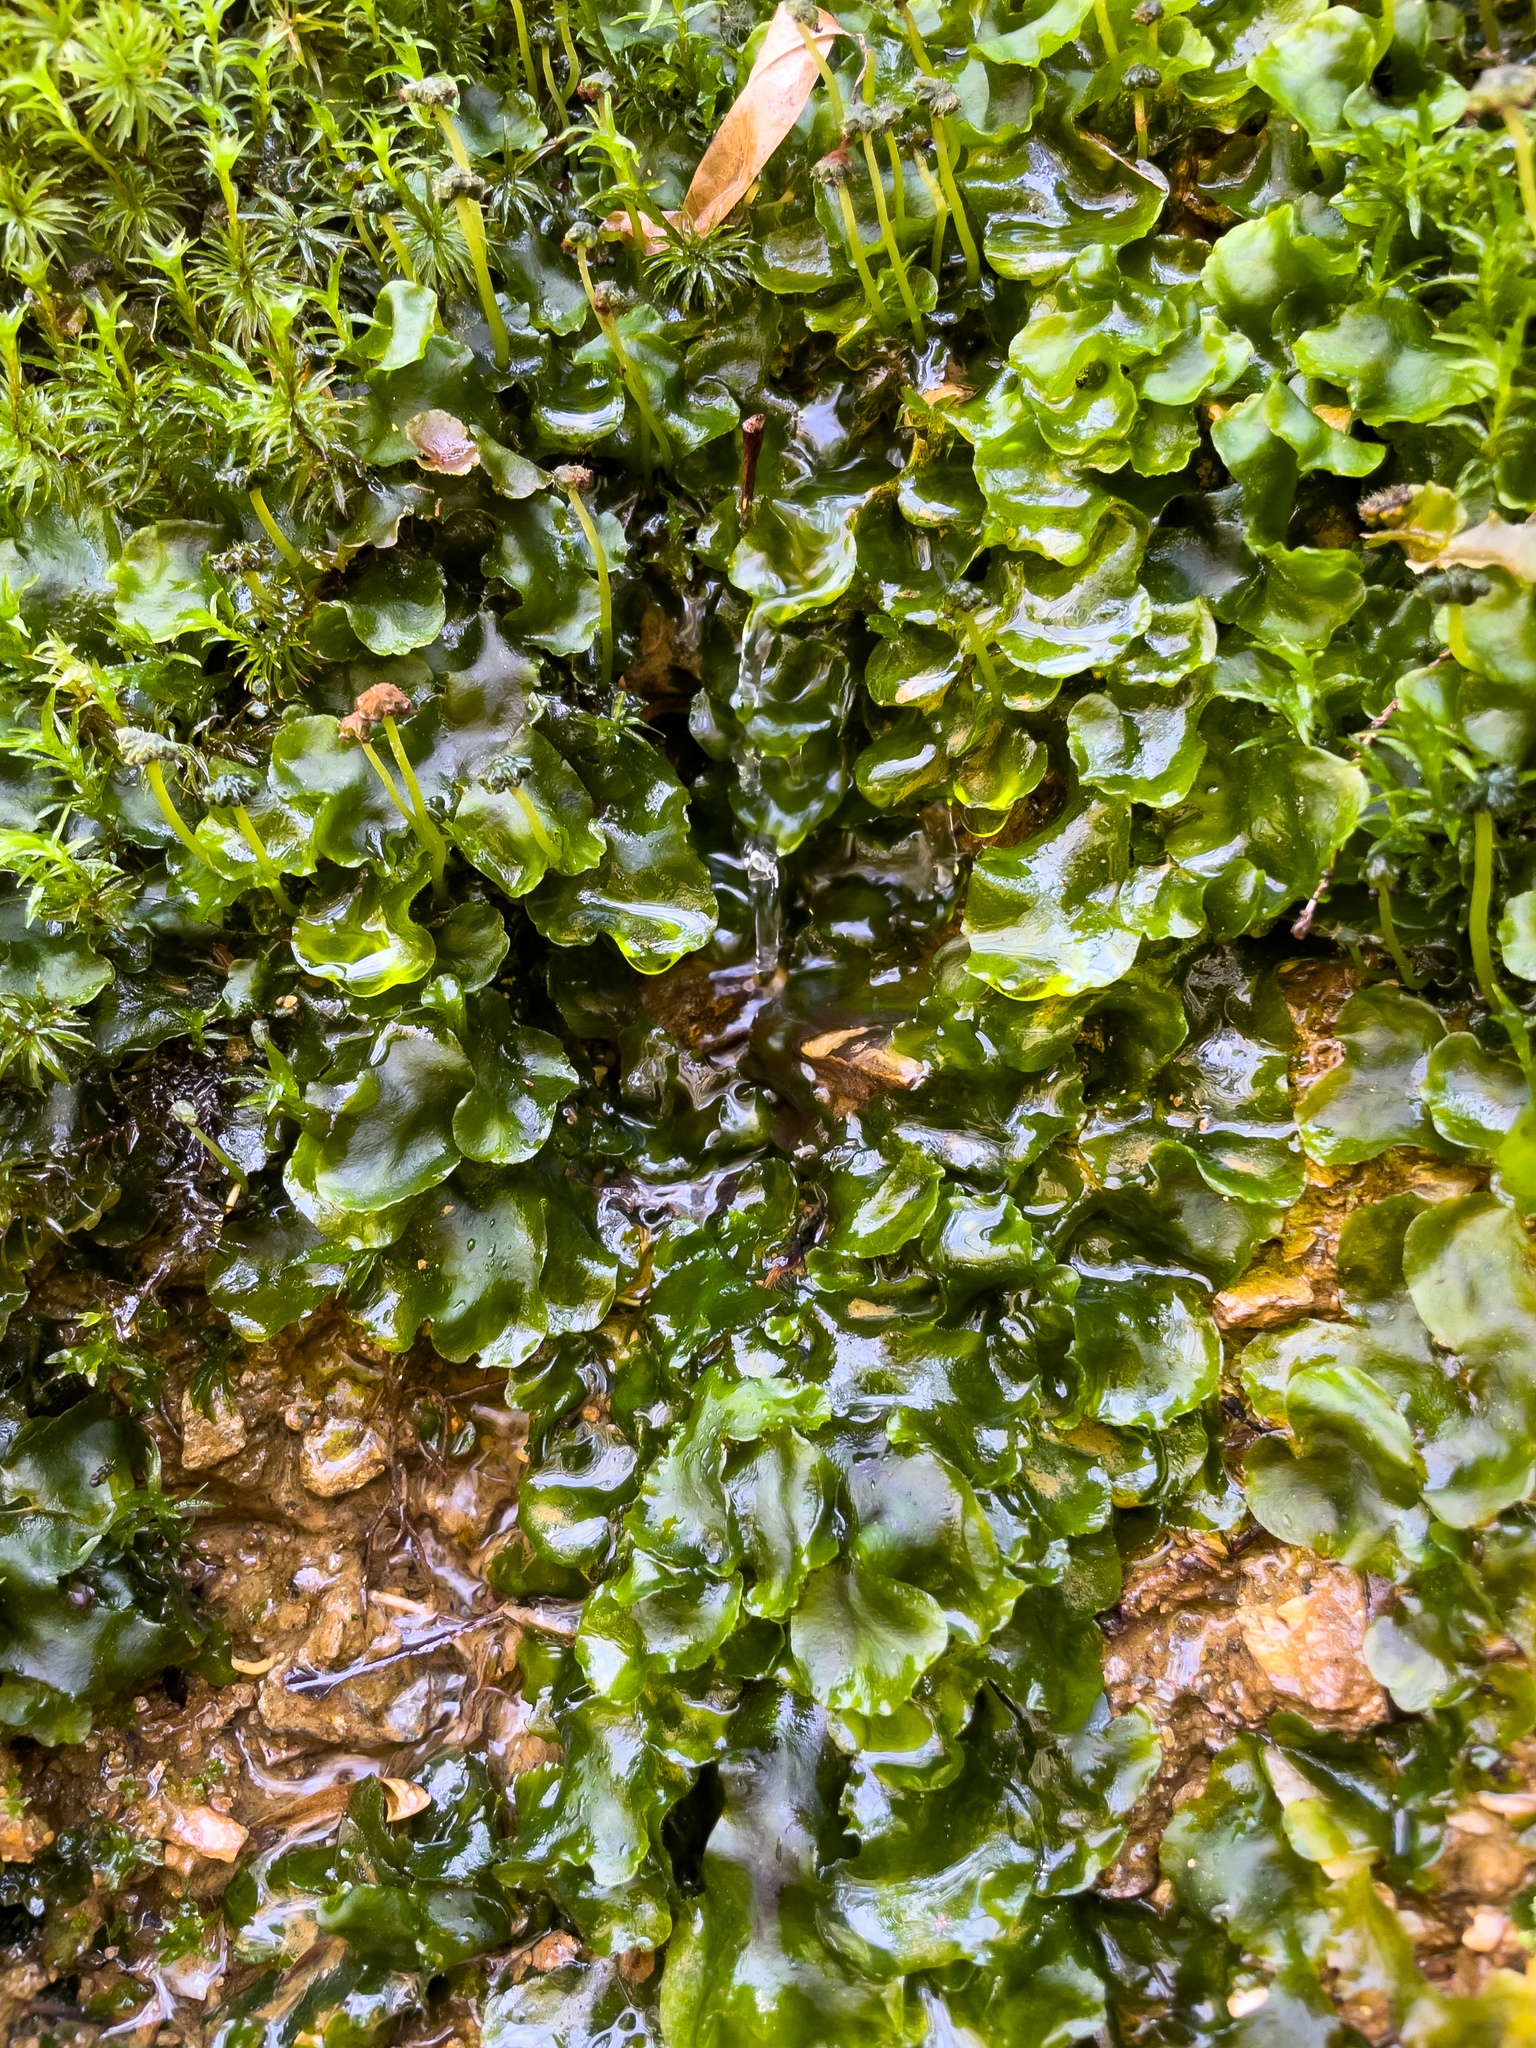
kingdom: Plantae
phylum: Marchantiophyta
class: Marchantiopsida
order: Marchantiales
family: Dumortieraceae
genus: Dumortiera
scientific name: Dumortiera hirsuta
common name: Dumortier's liverwort
